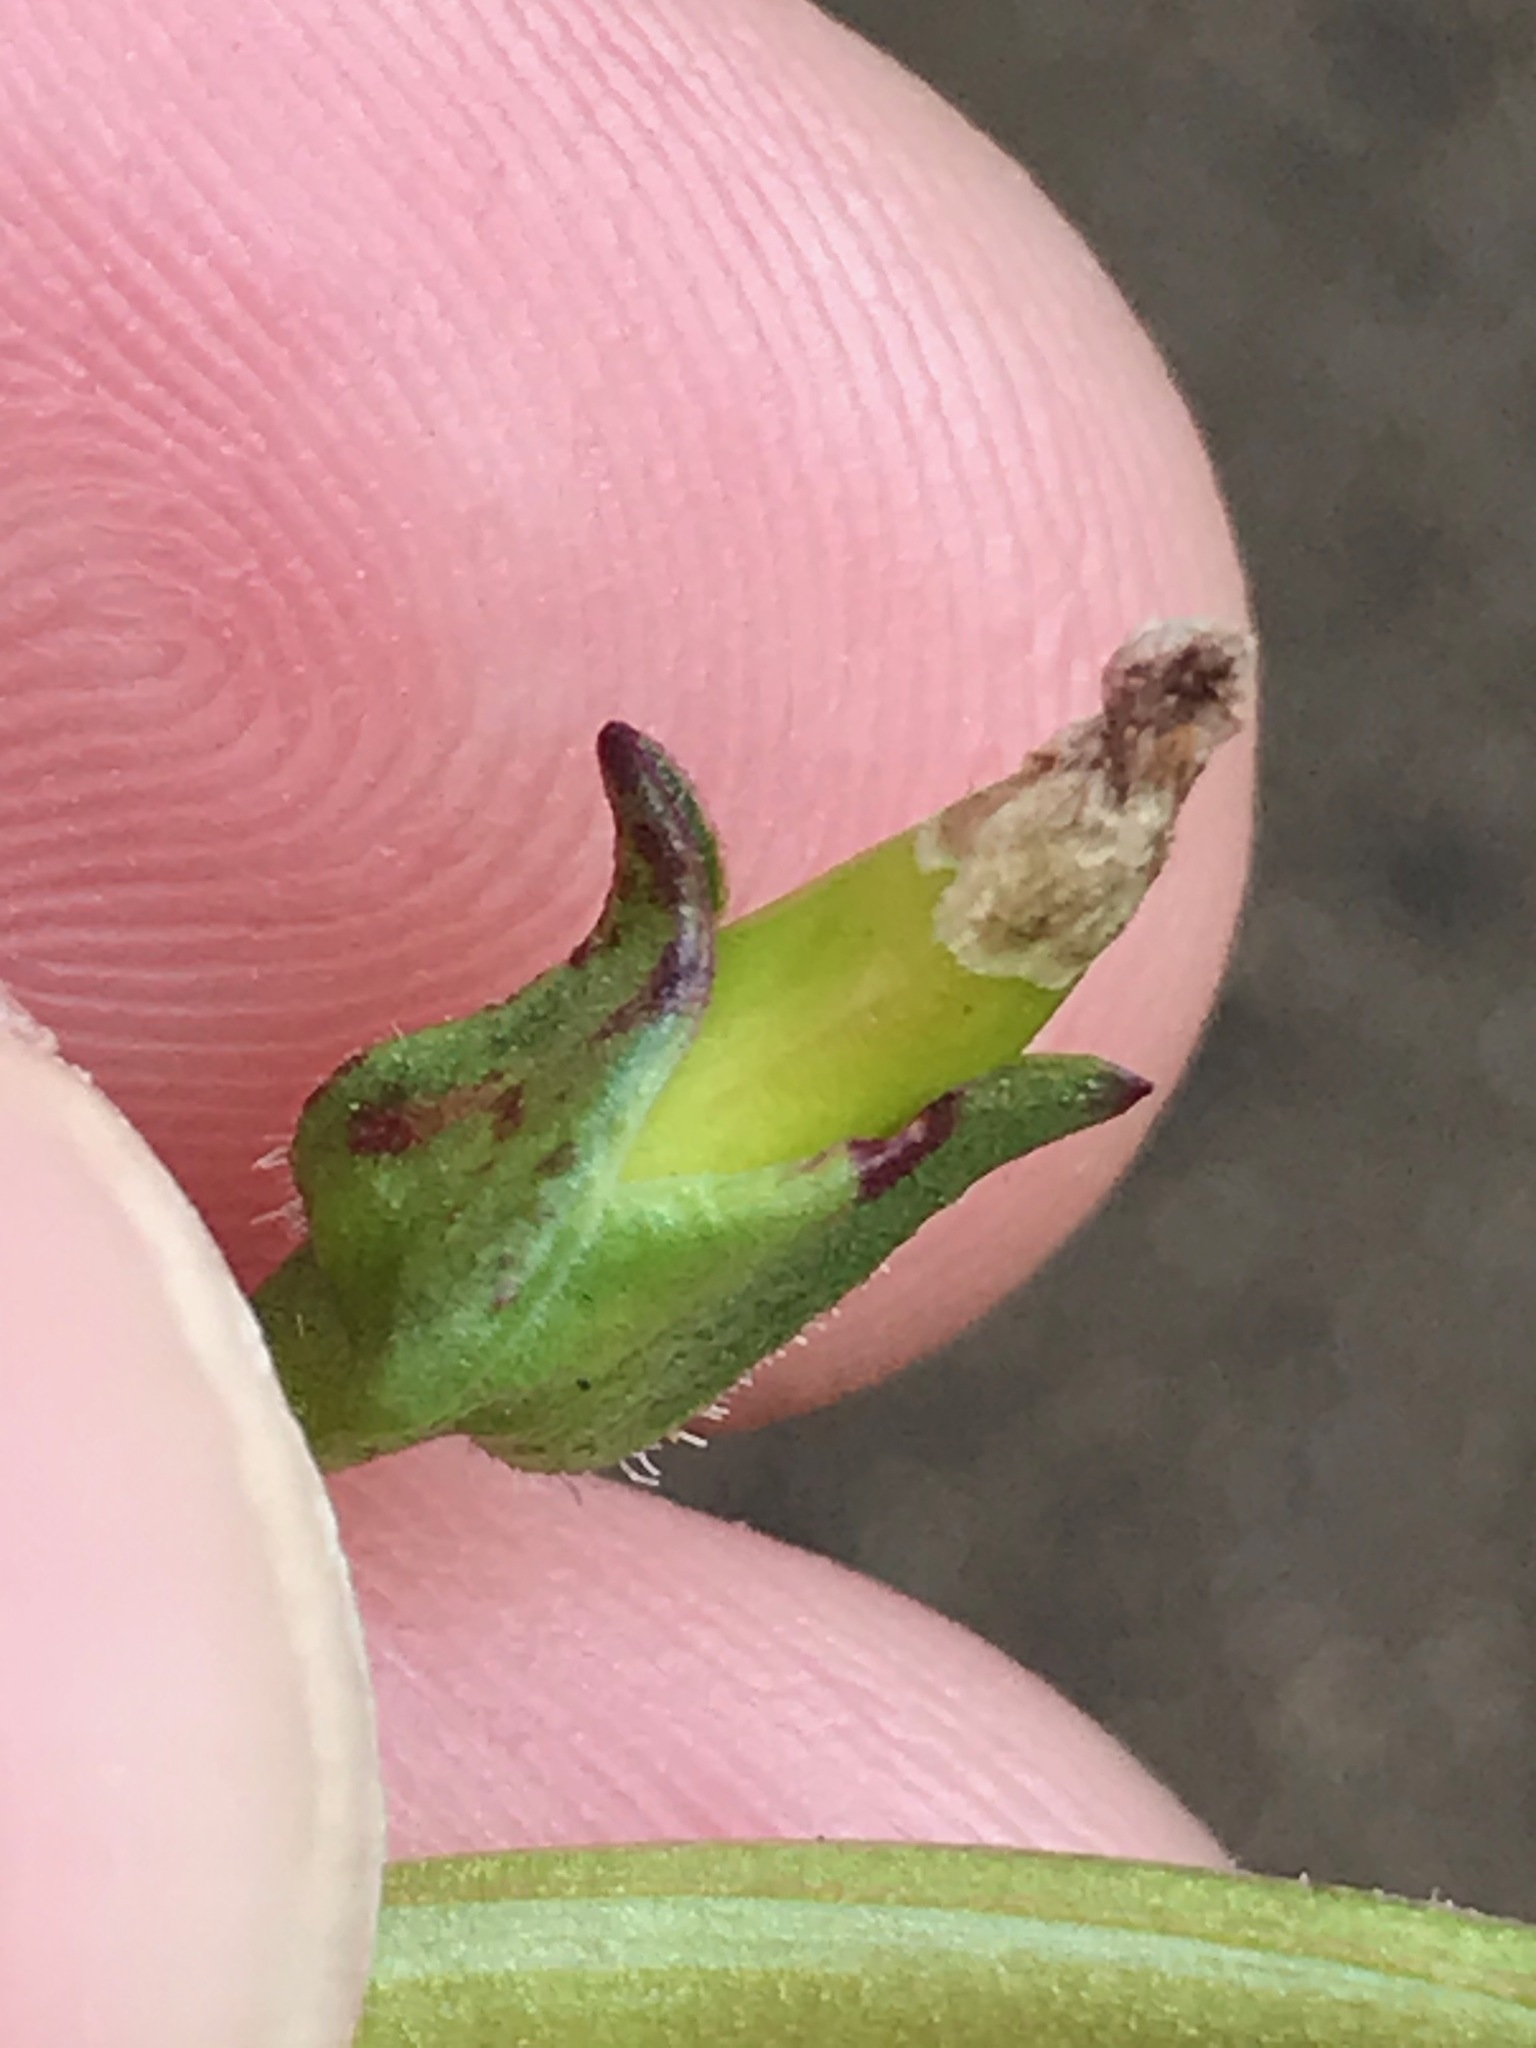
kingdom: Plantae
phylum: Tracheophyta
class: Magnoliopsida
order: Caryophyllales
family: Montiaceae
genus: Calandrinia
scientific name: Calandrinia breweri
